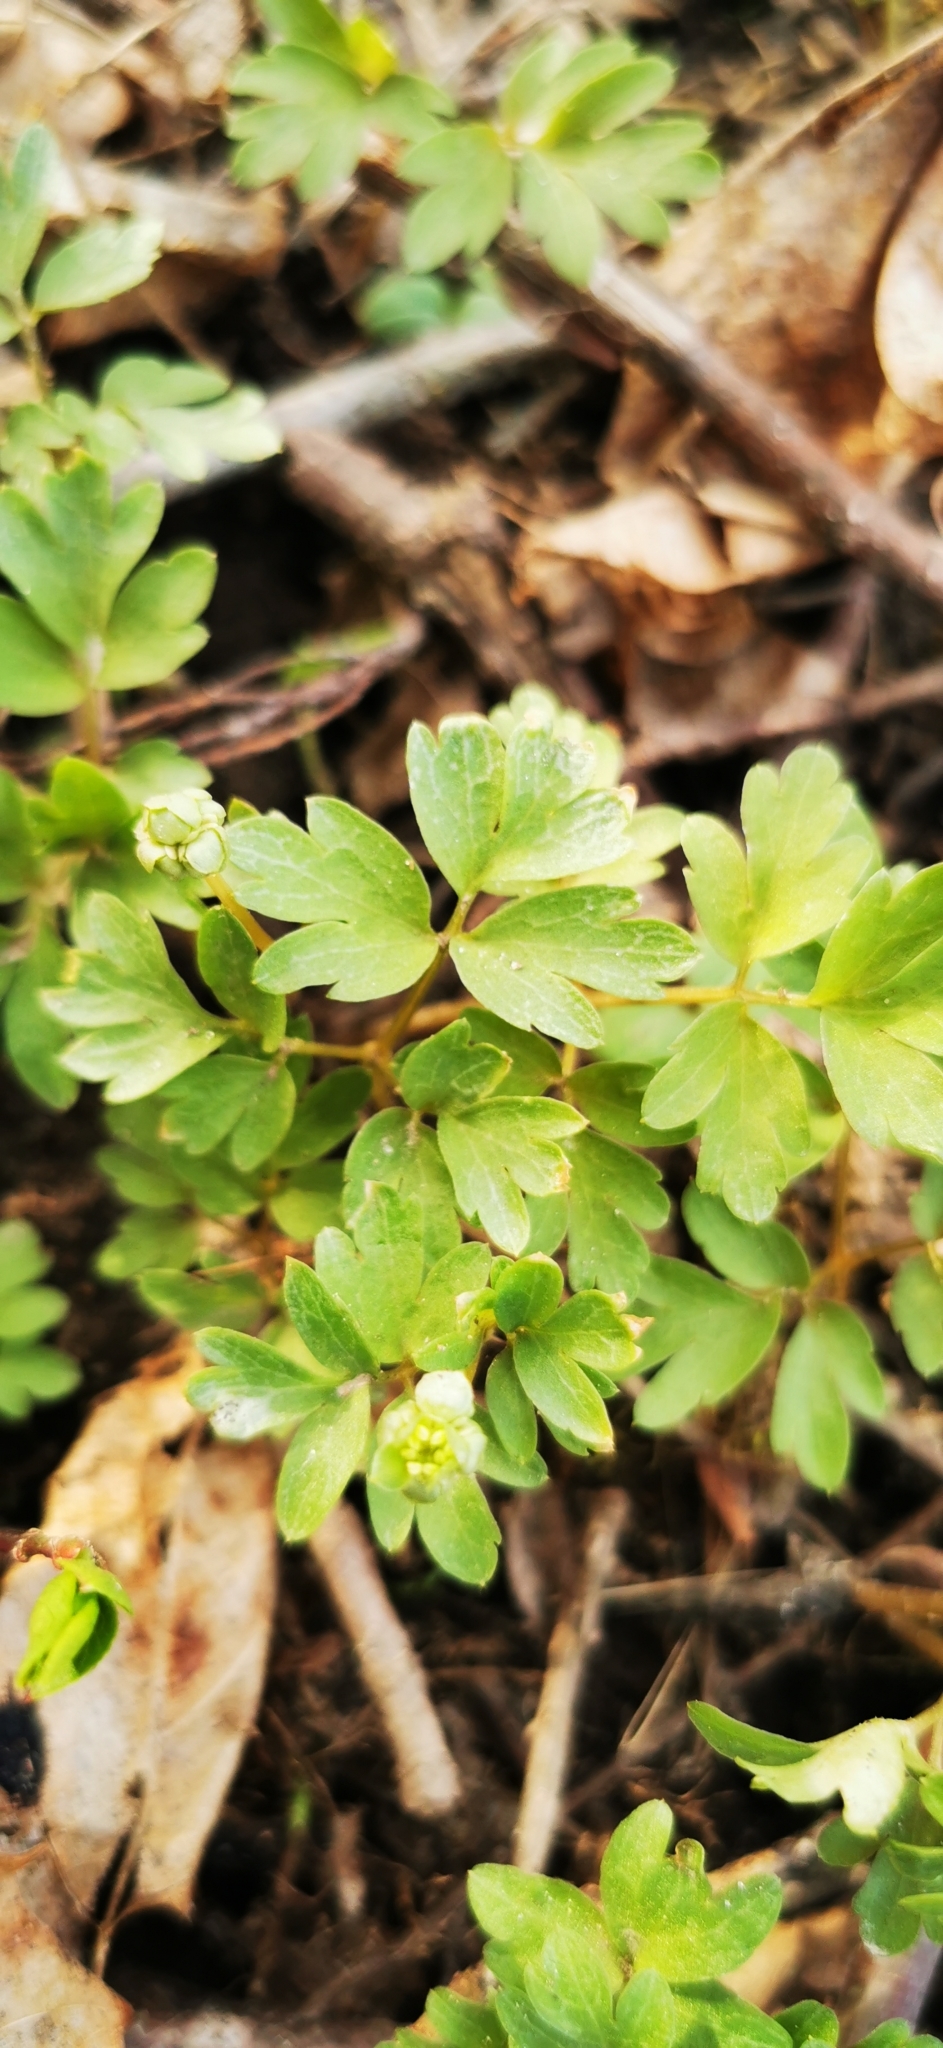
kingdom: Plantae
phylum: Tracheophyta
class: Magnoliopsida
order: Dipsacales
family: Viburnaceae
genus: Adoxa
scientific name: Adoxa moschatellina
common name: Moschatel
